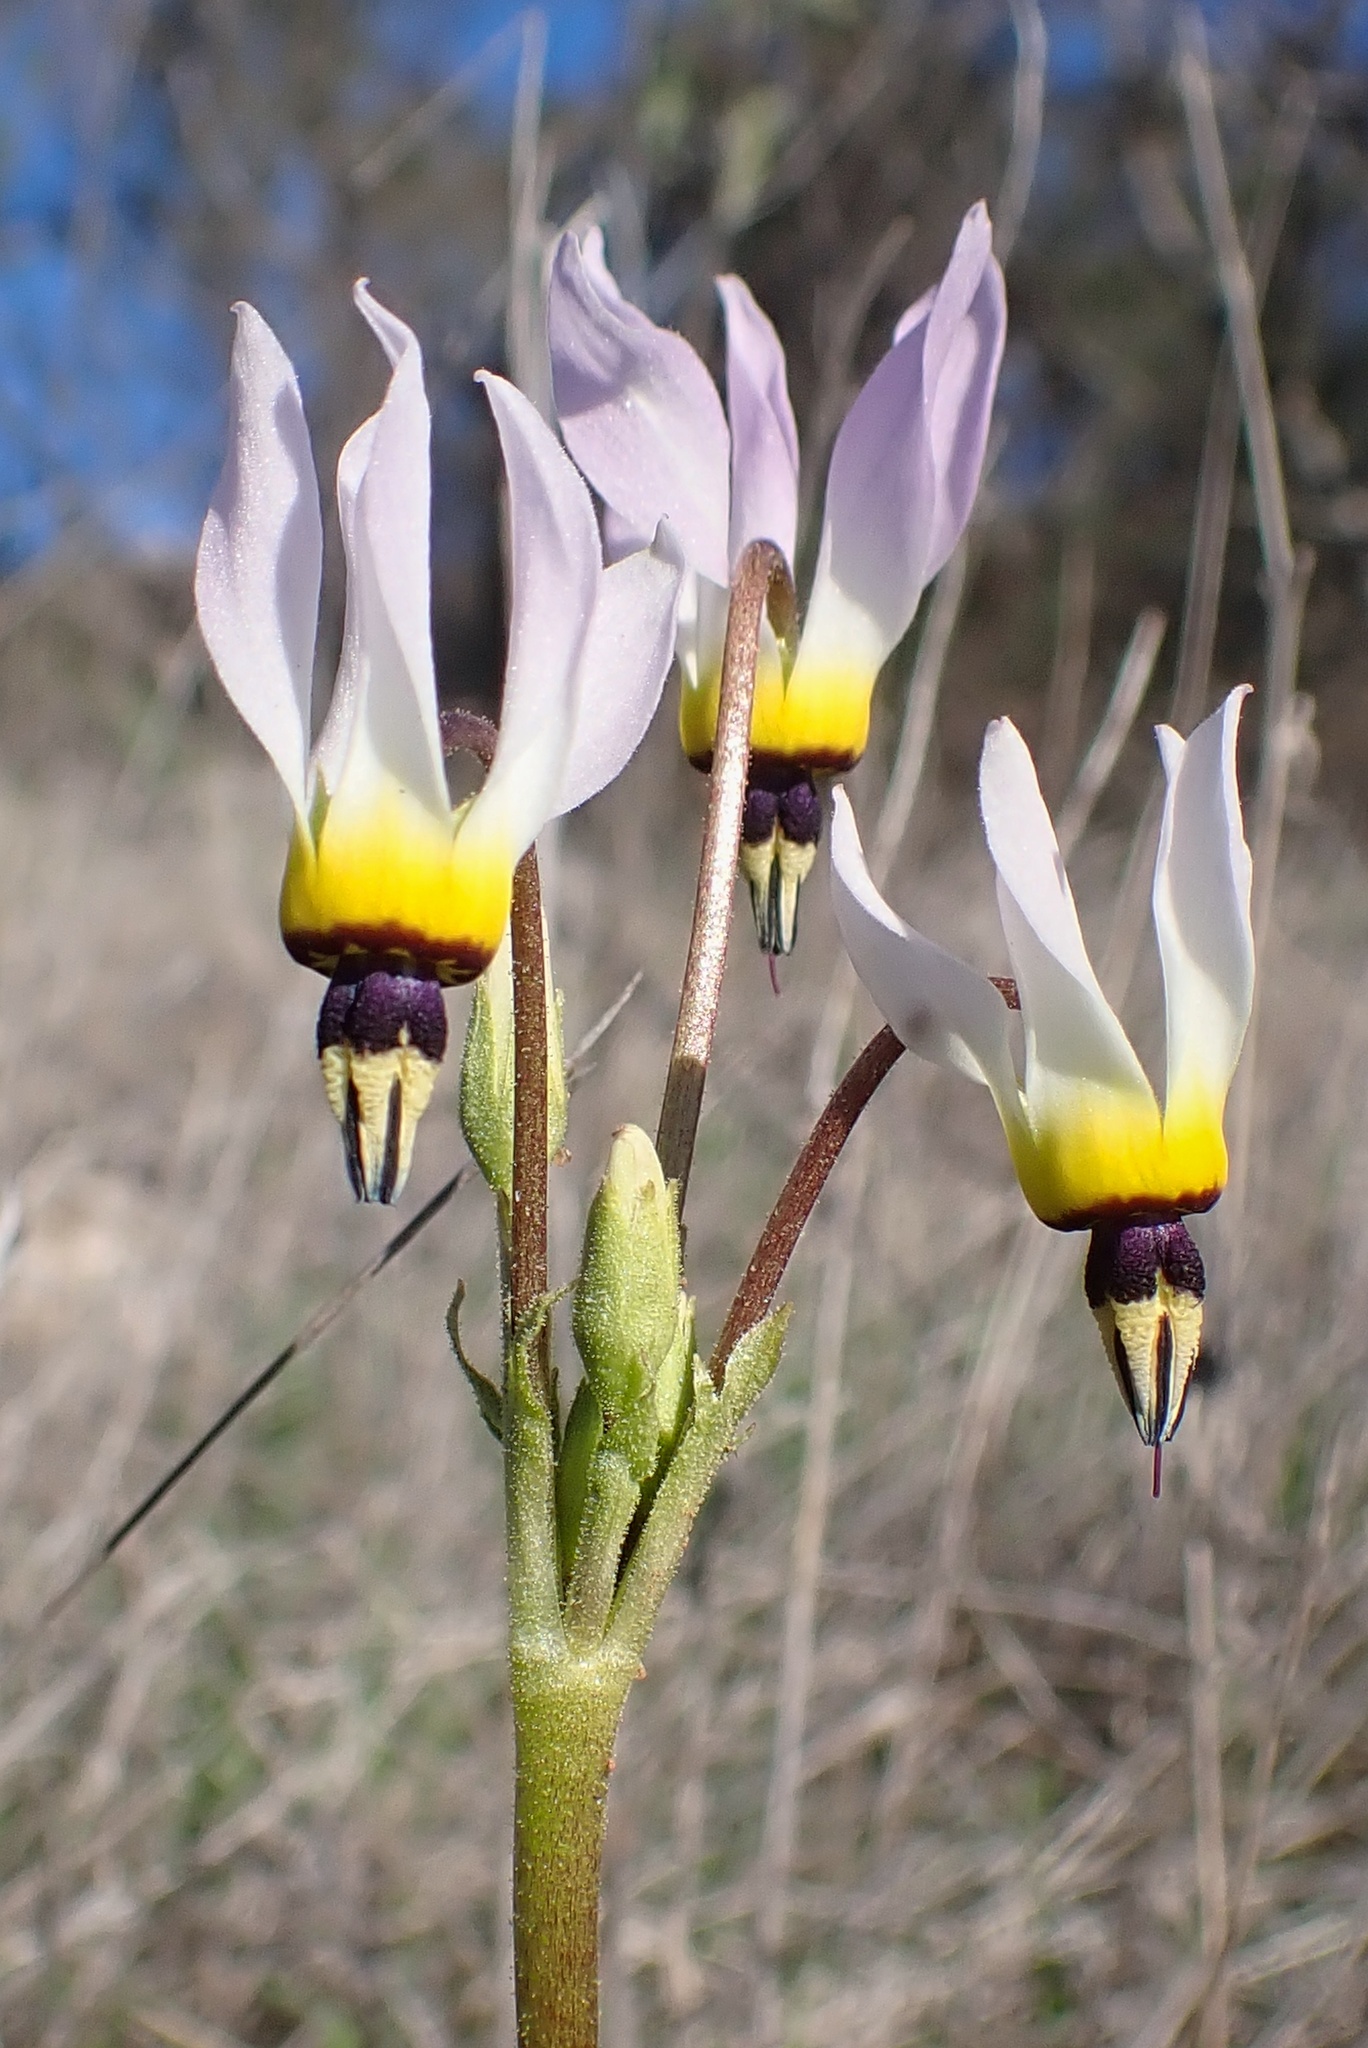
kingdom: Plantae
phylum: Tracheophyta
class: Magnoliopsida
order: Ericales
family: Primulaceae
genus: Dodecatheon
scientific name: Dodecatheon clevelandii
